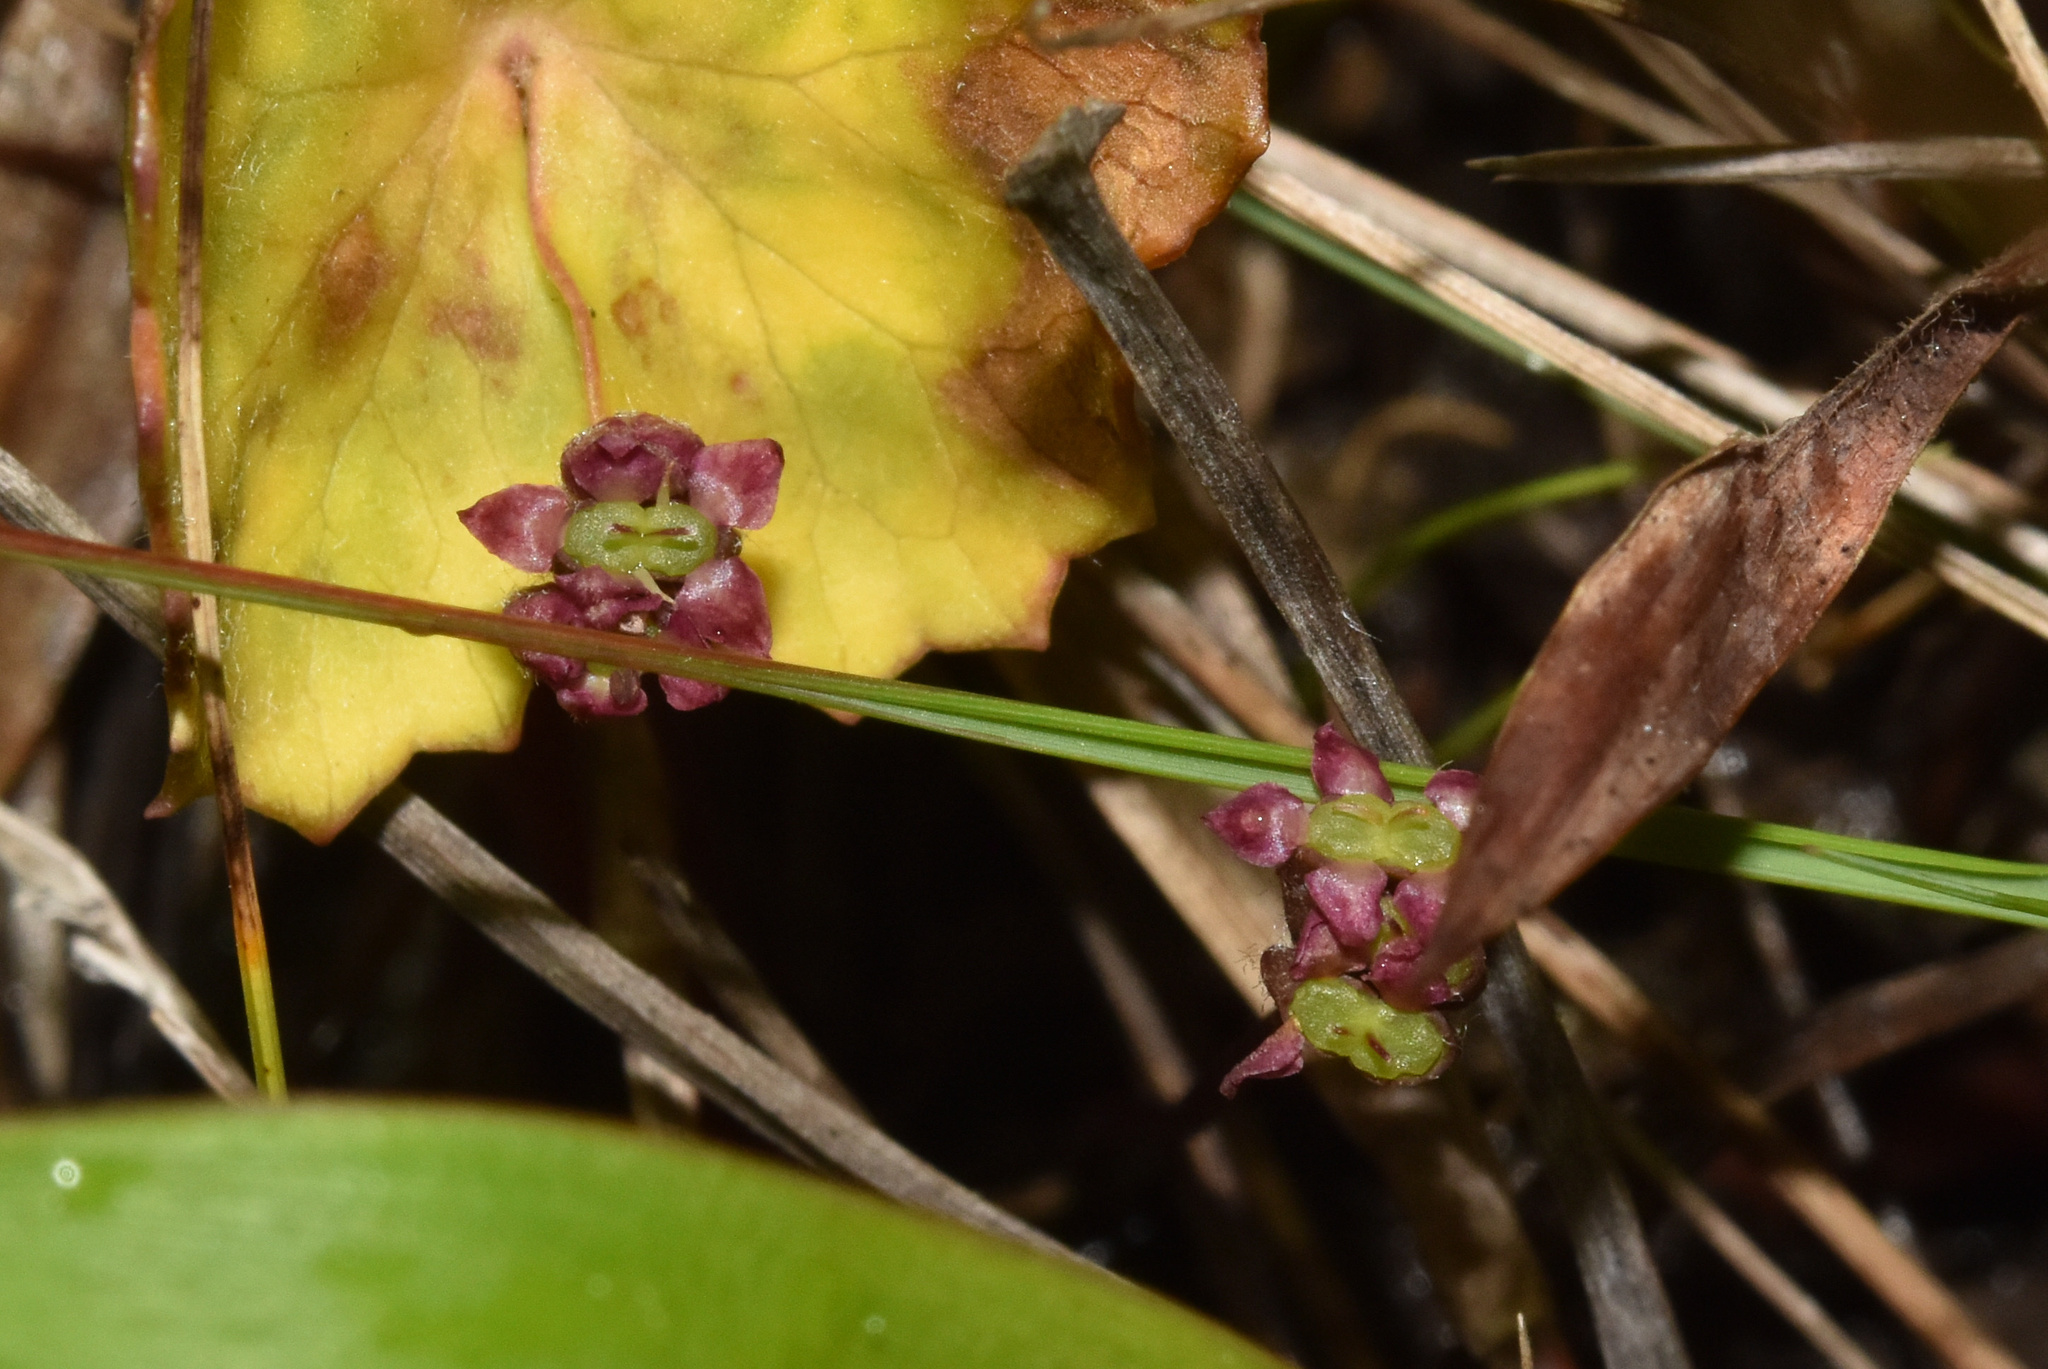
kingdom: Plantae
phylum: Tracheophyta
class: Magnoliopsida
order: Apiales
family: Apiaceae
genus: Centella
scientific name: Centella asiatica
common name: Spadeleaf
